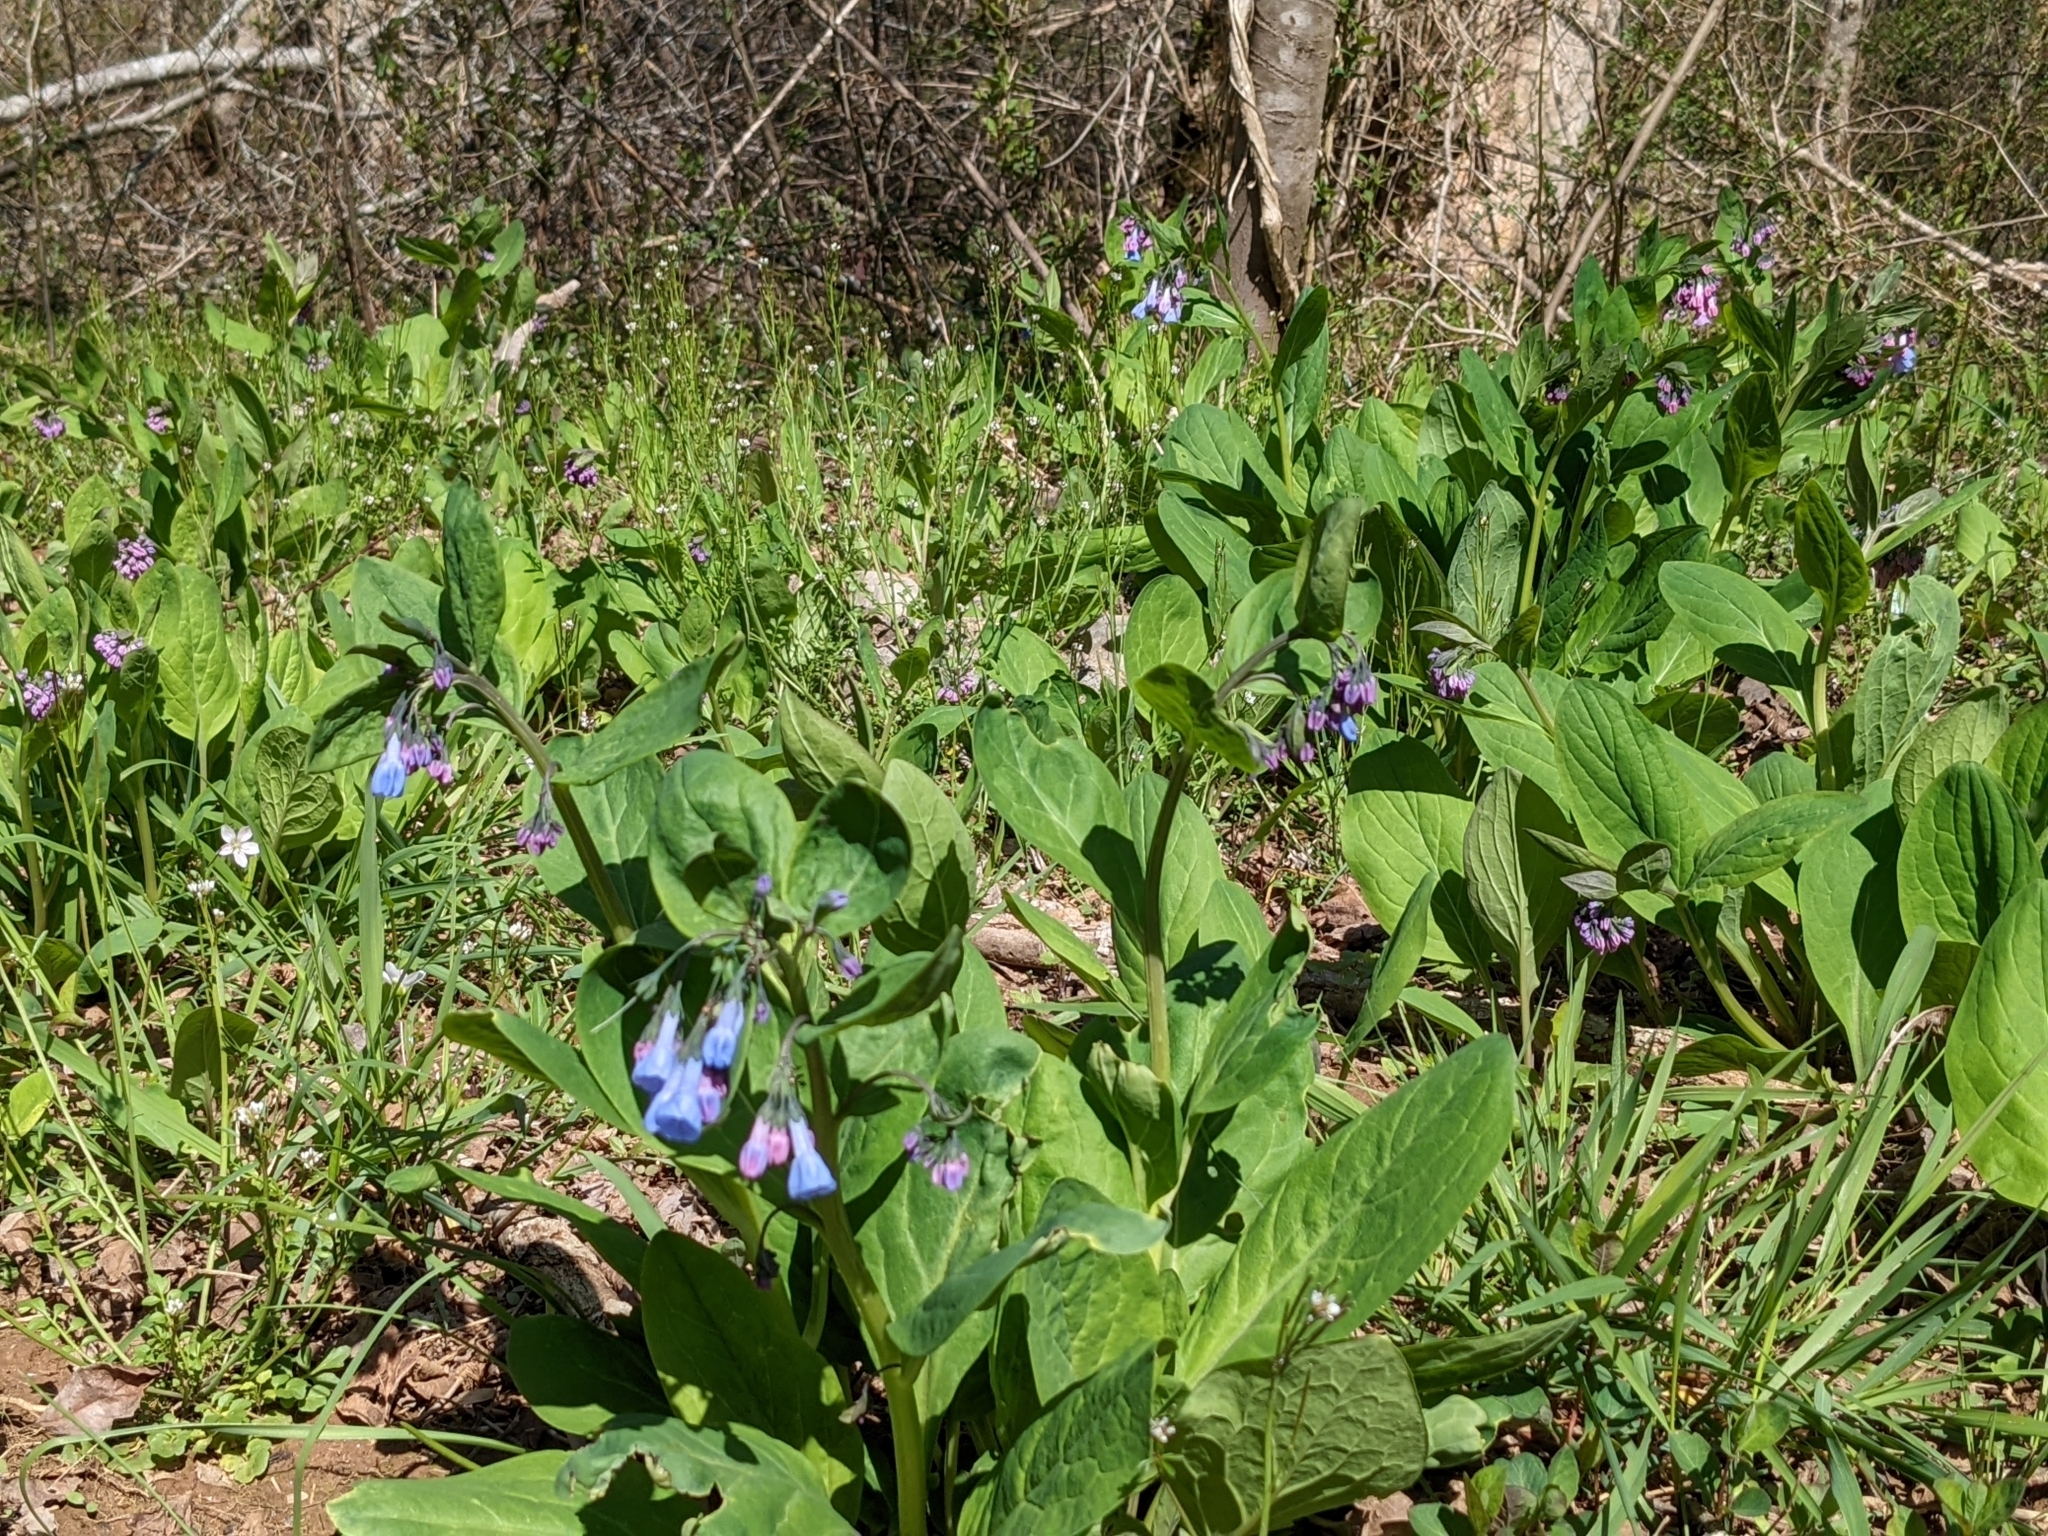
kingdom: Plantae
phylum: Tracheophyta
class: Magnoliopsida
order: Boraginales
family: Boraginaceae
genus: Mertensia
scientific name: Mertensia virginica
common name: Virginia bluebells
